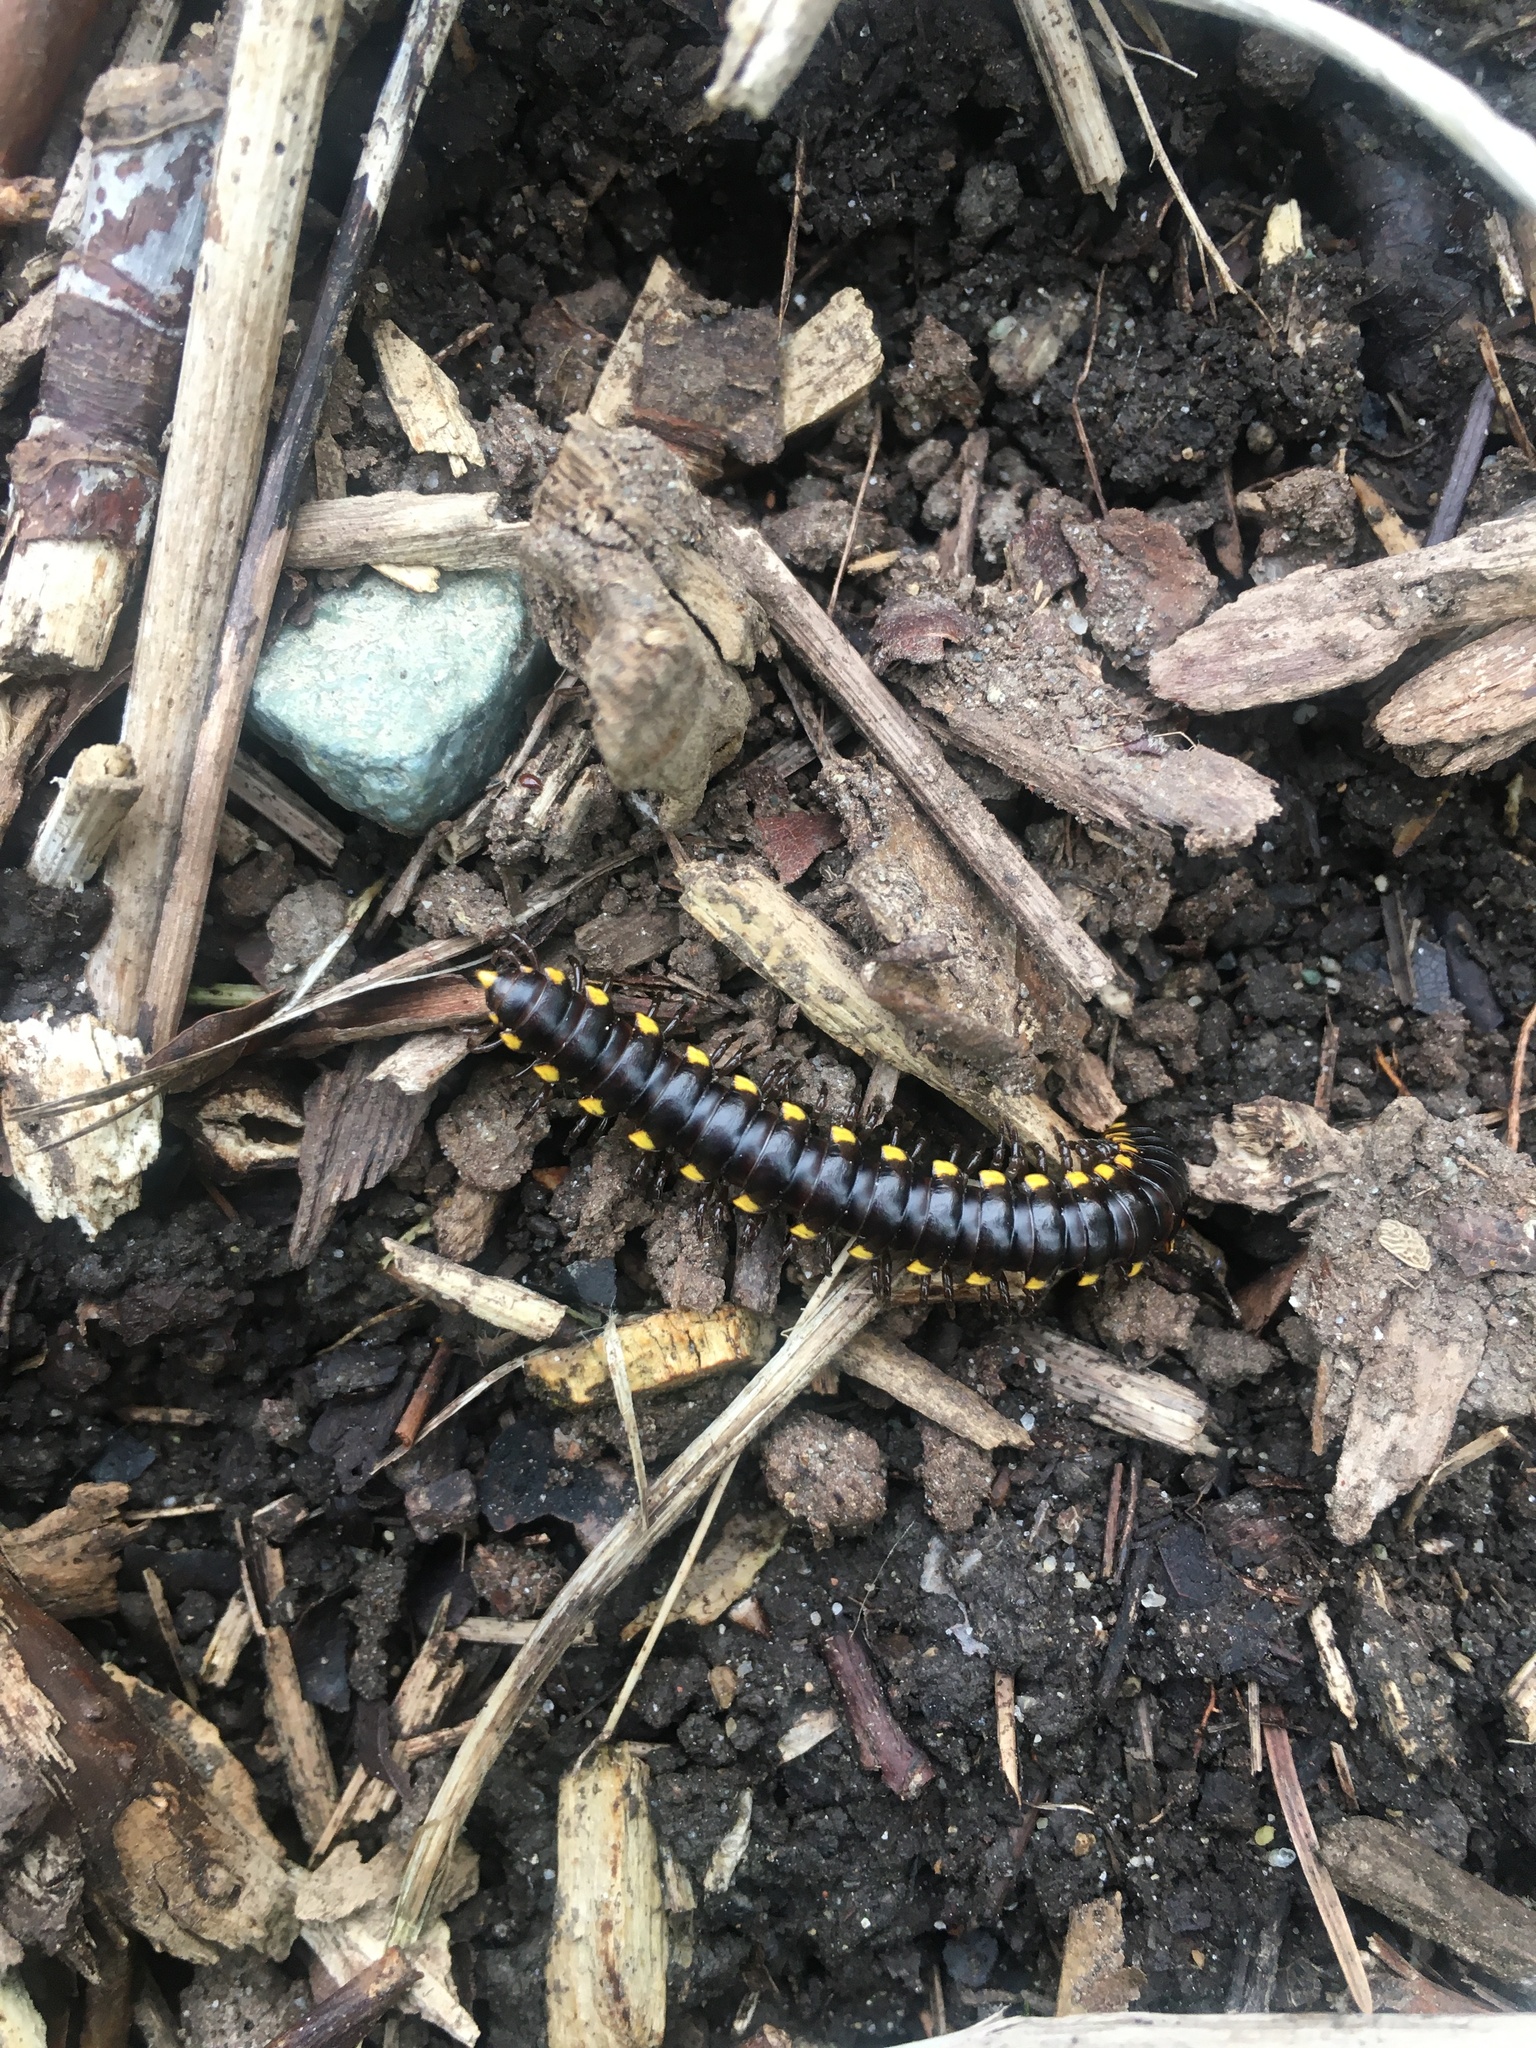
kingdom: Animalia
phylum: Arthropoda
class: Diplopoda
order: Polydesmida
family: Xystodesmidae
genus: Harpaphe
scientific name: Harpaphe haydeniana
